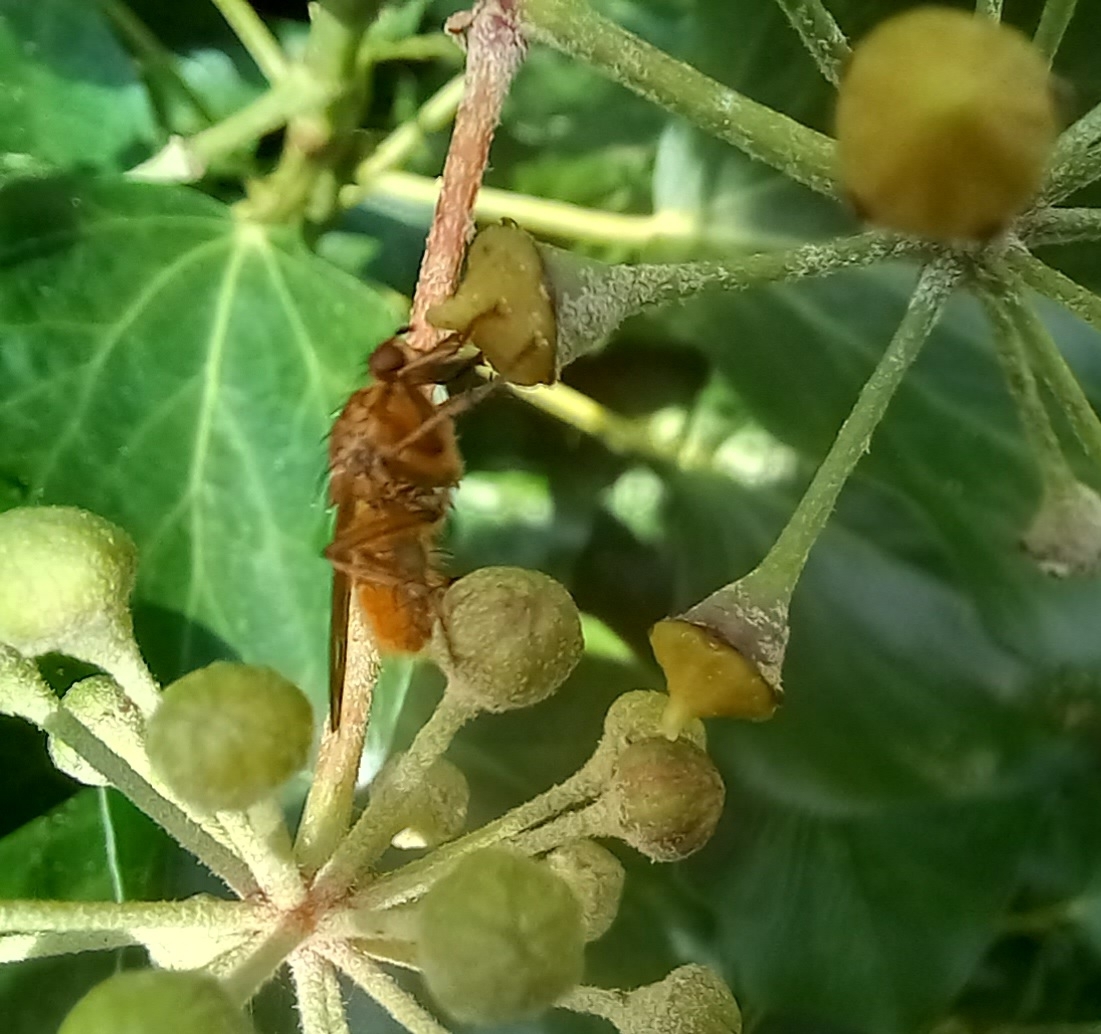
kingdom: Animalia
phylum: Arthropoda
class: Insecta
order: Diptera
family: Scathophagidae
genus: Scathophaga
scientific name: Scathophaga stercoraria
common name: Yellow dung fly
